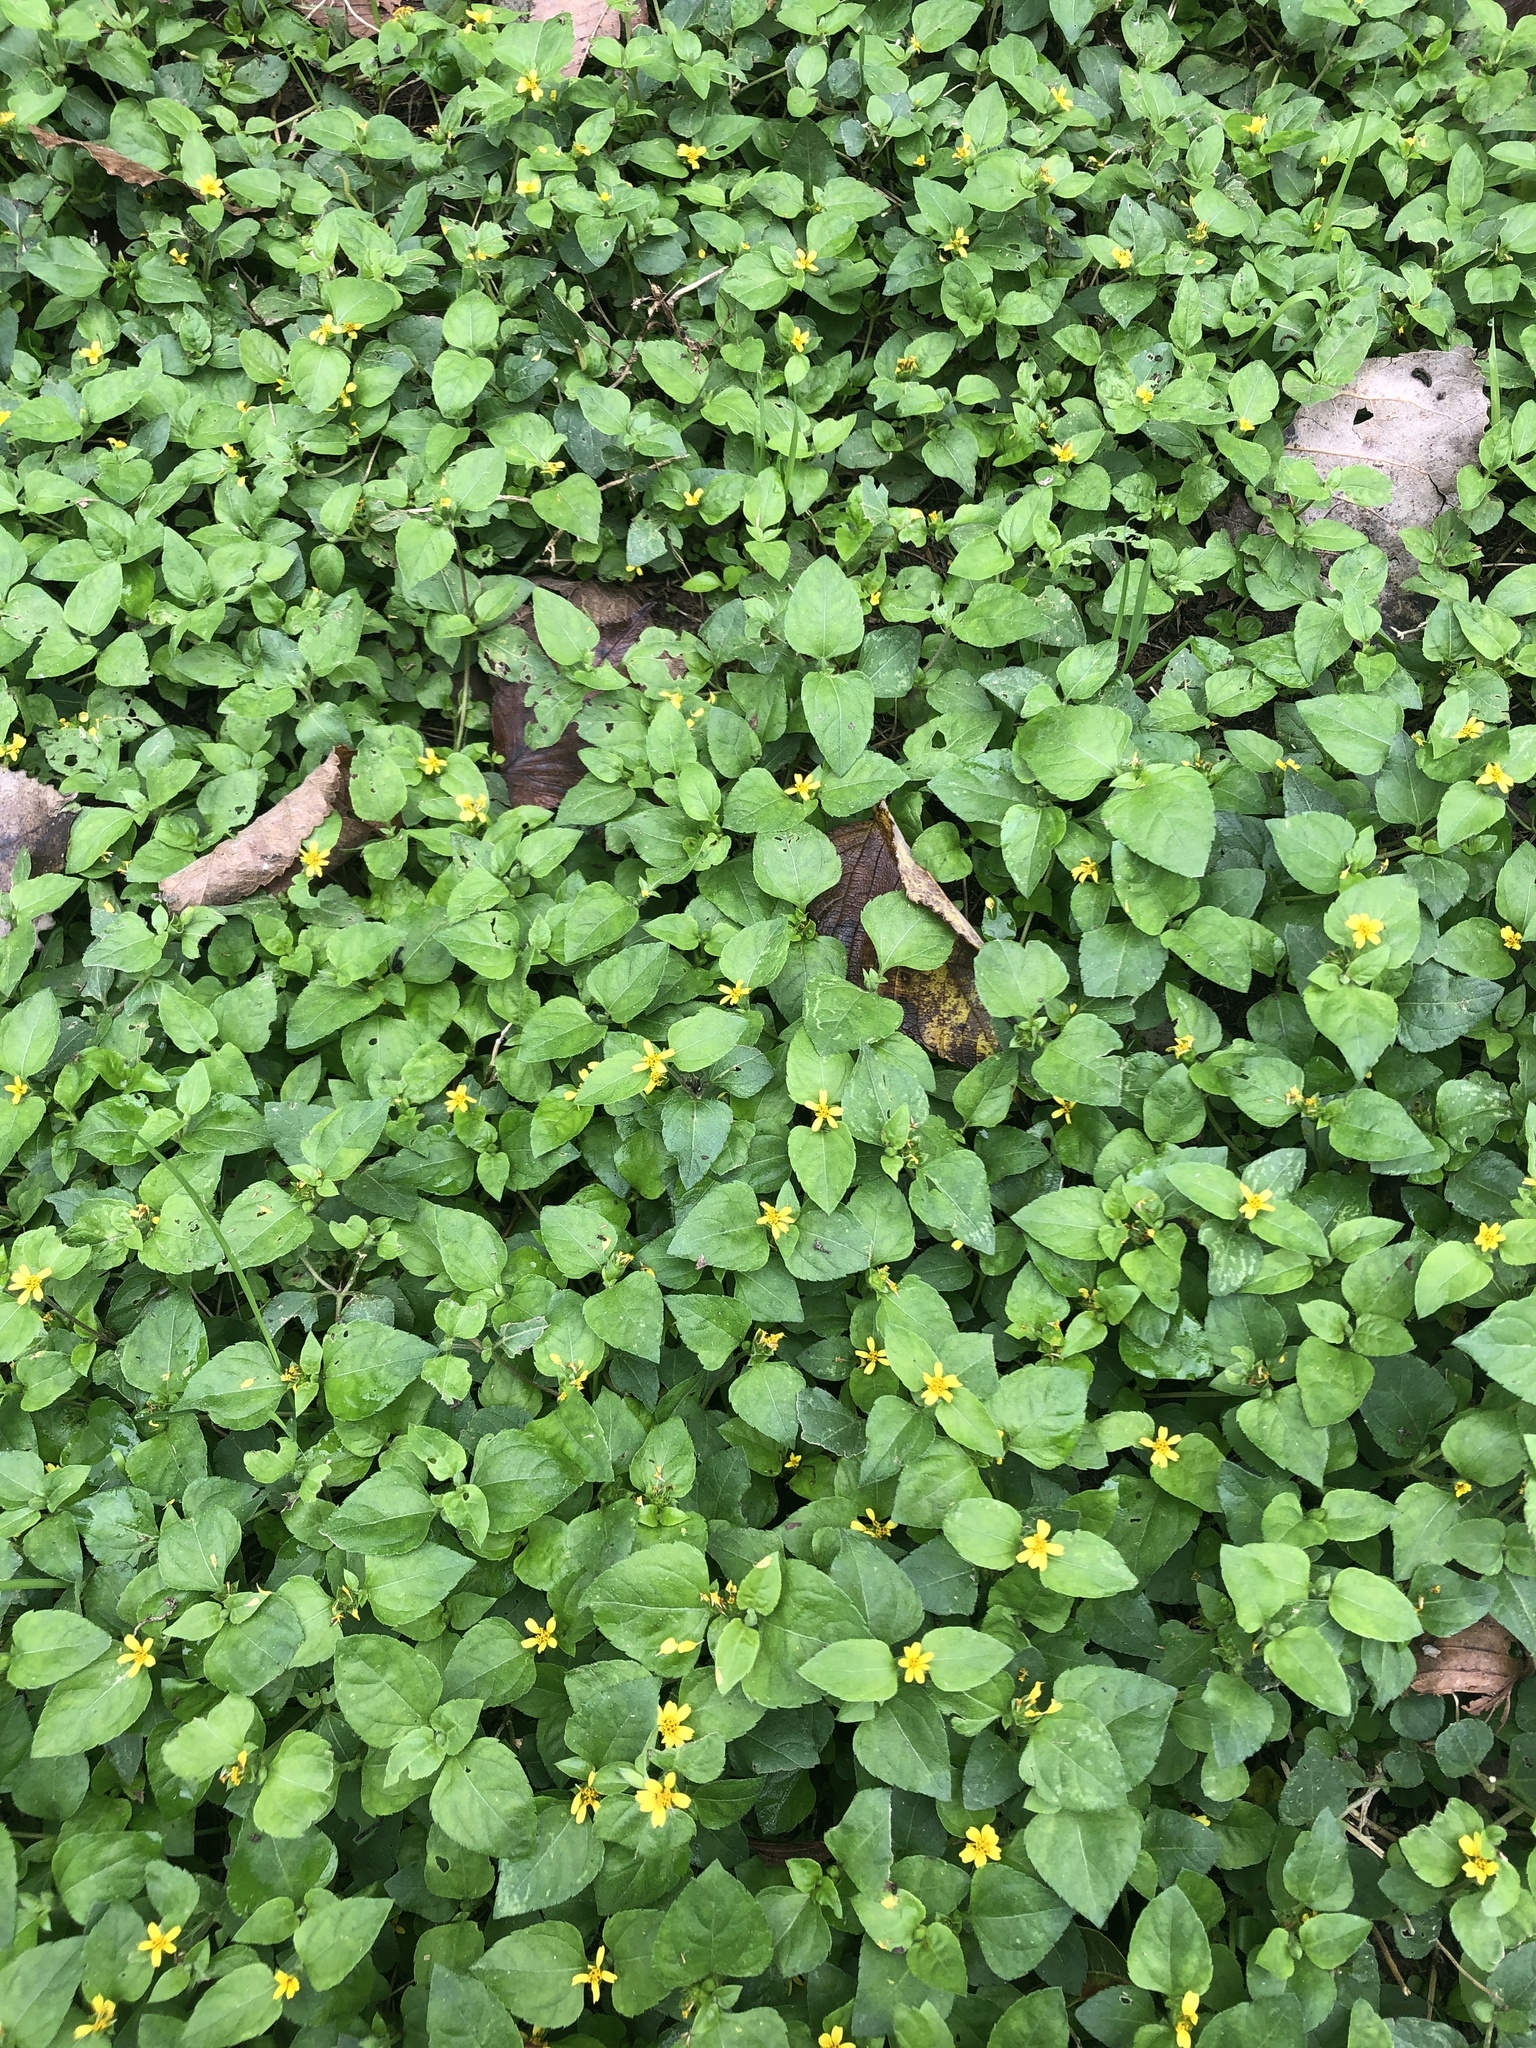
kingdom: Plantae
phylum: Tracheophyta
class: Magnoliopsida
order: Asterales
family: Asteraceae
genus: Calyptocarpus
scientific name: Calyptocarpus vialis
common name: Straggler daisy
